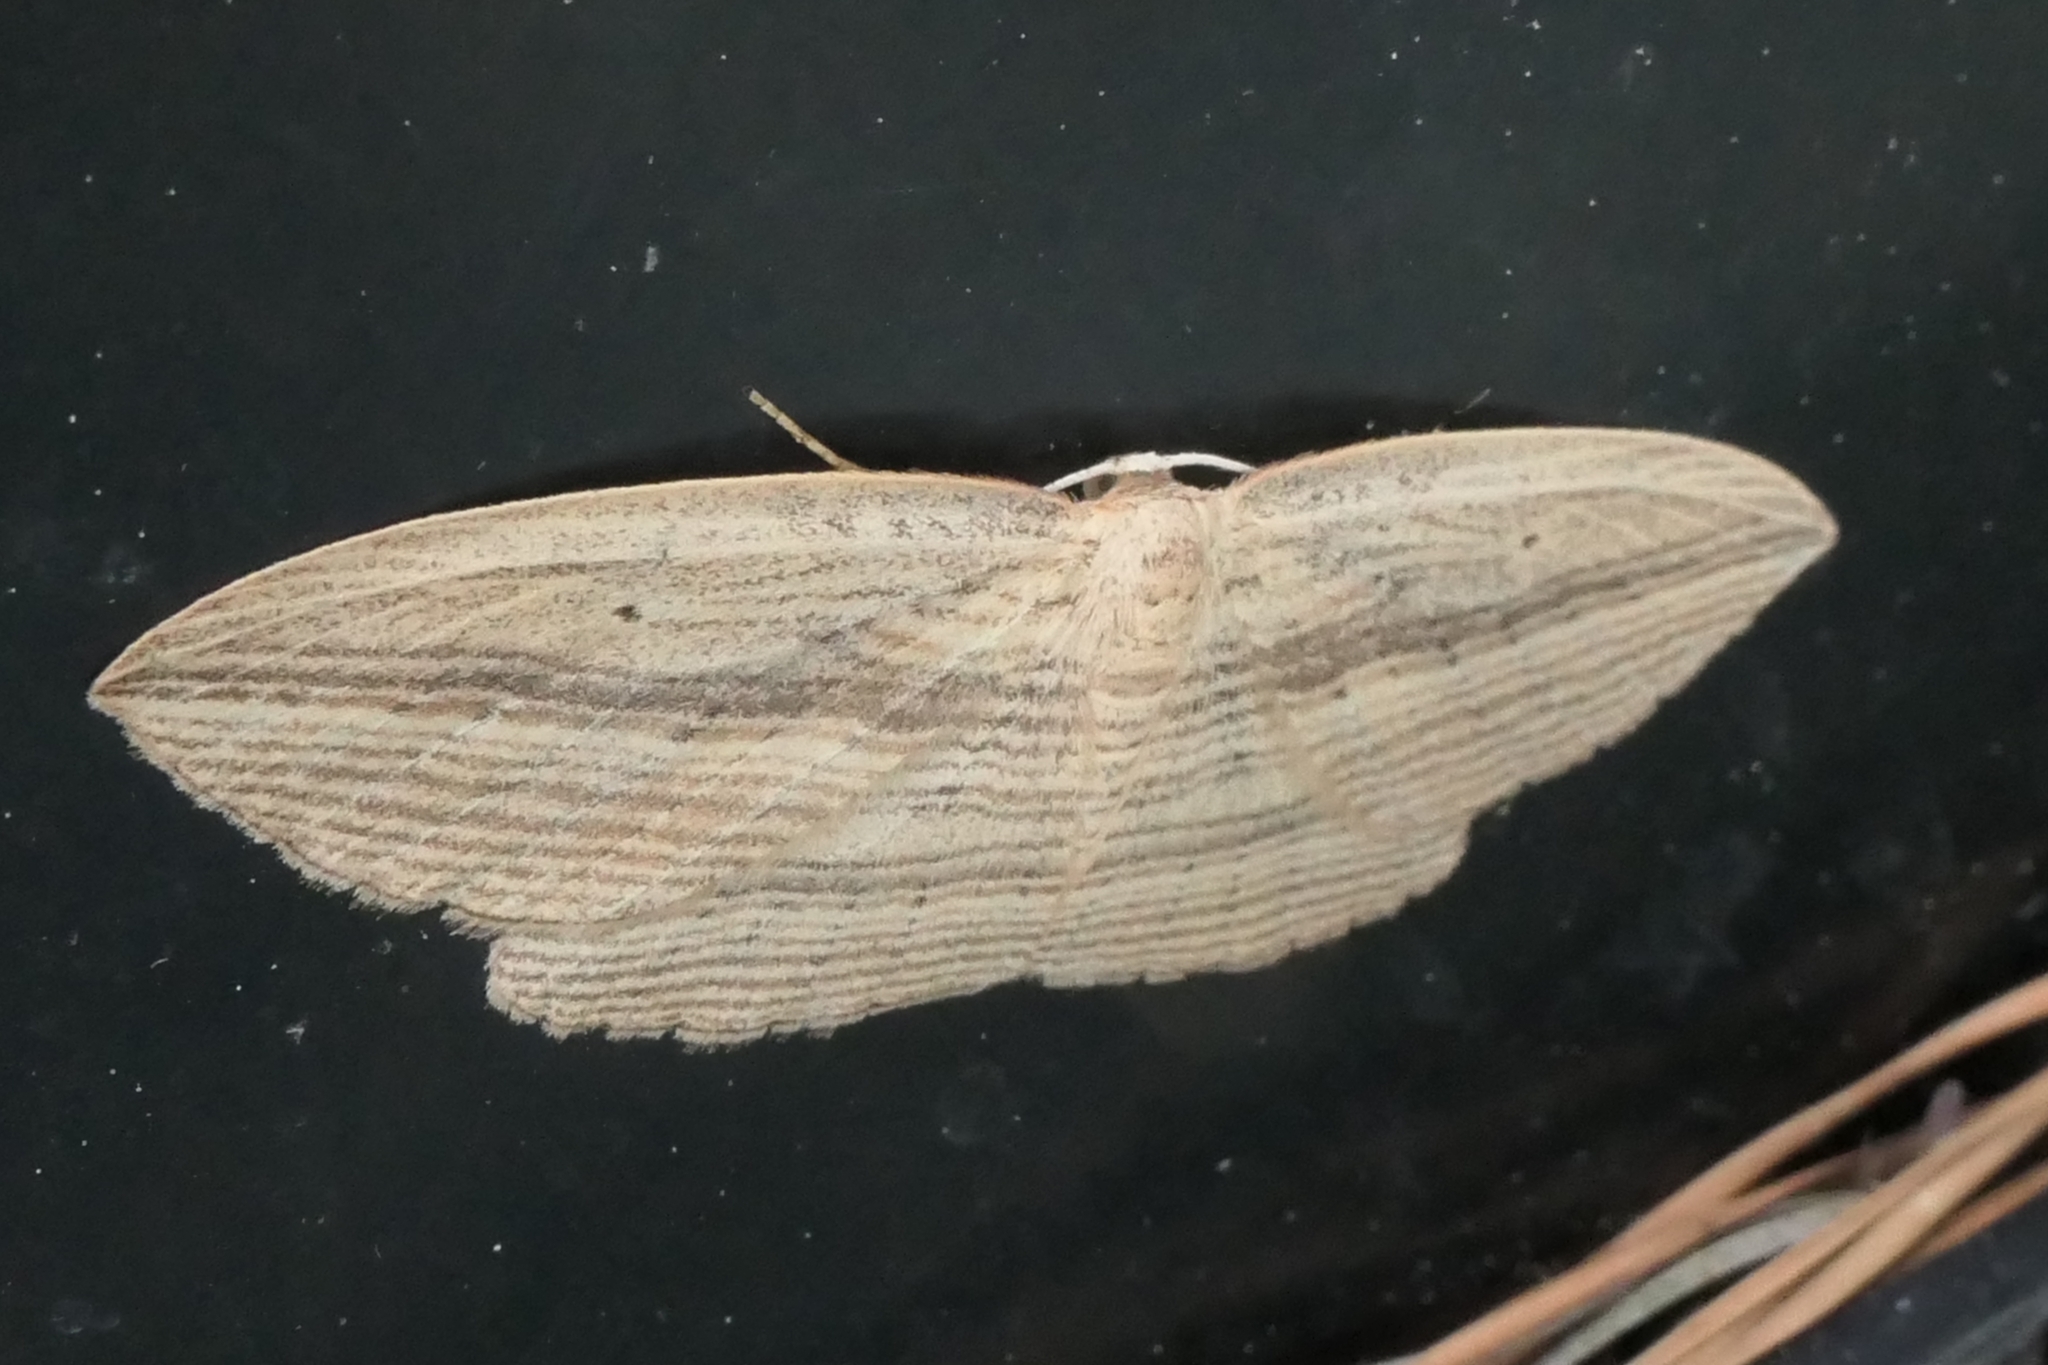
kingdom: Animalia
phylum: Arthropoda
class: Insecta
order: Lepidoptera
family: Geometridae
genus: Epiphryne
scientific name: Epiphryne verriculata
